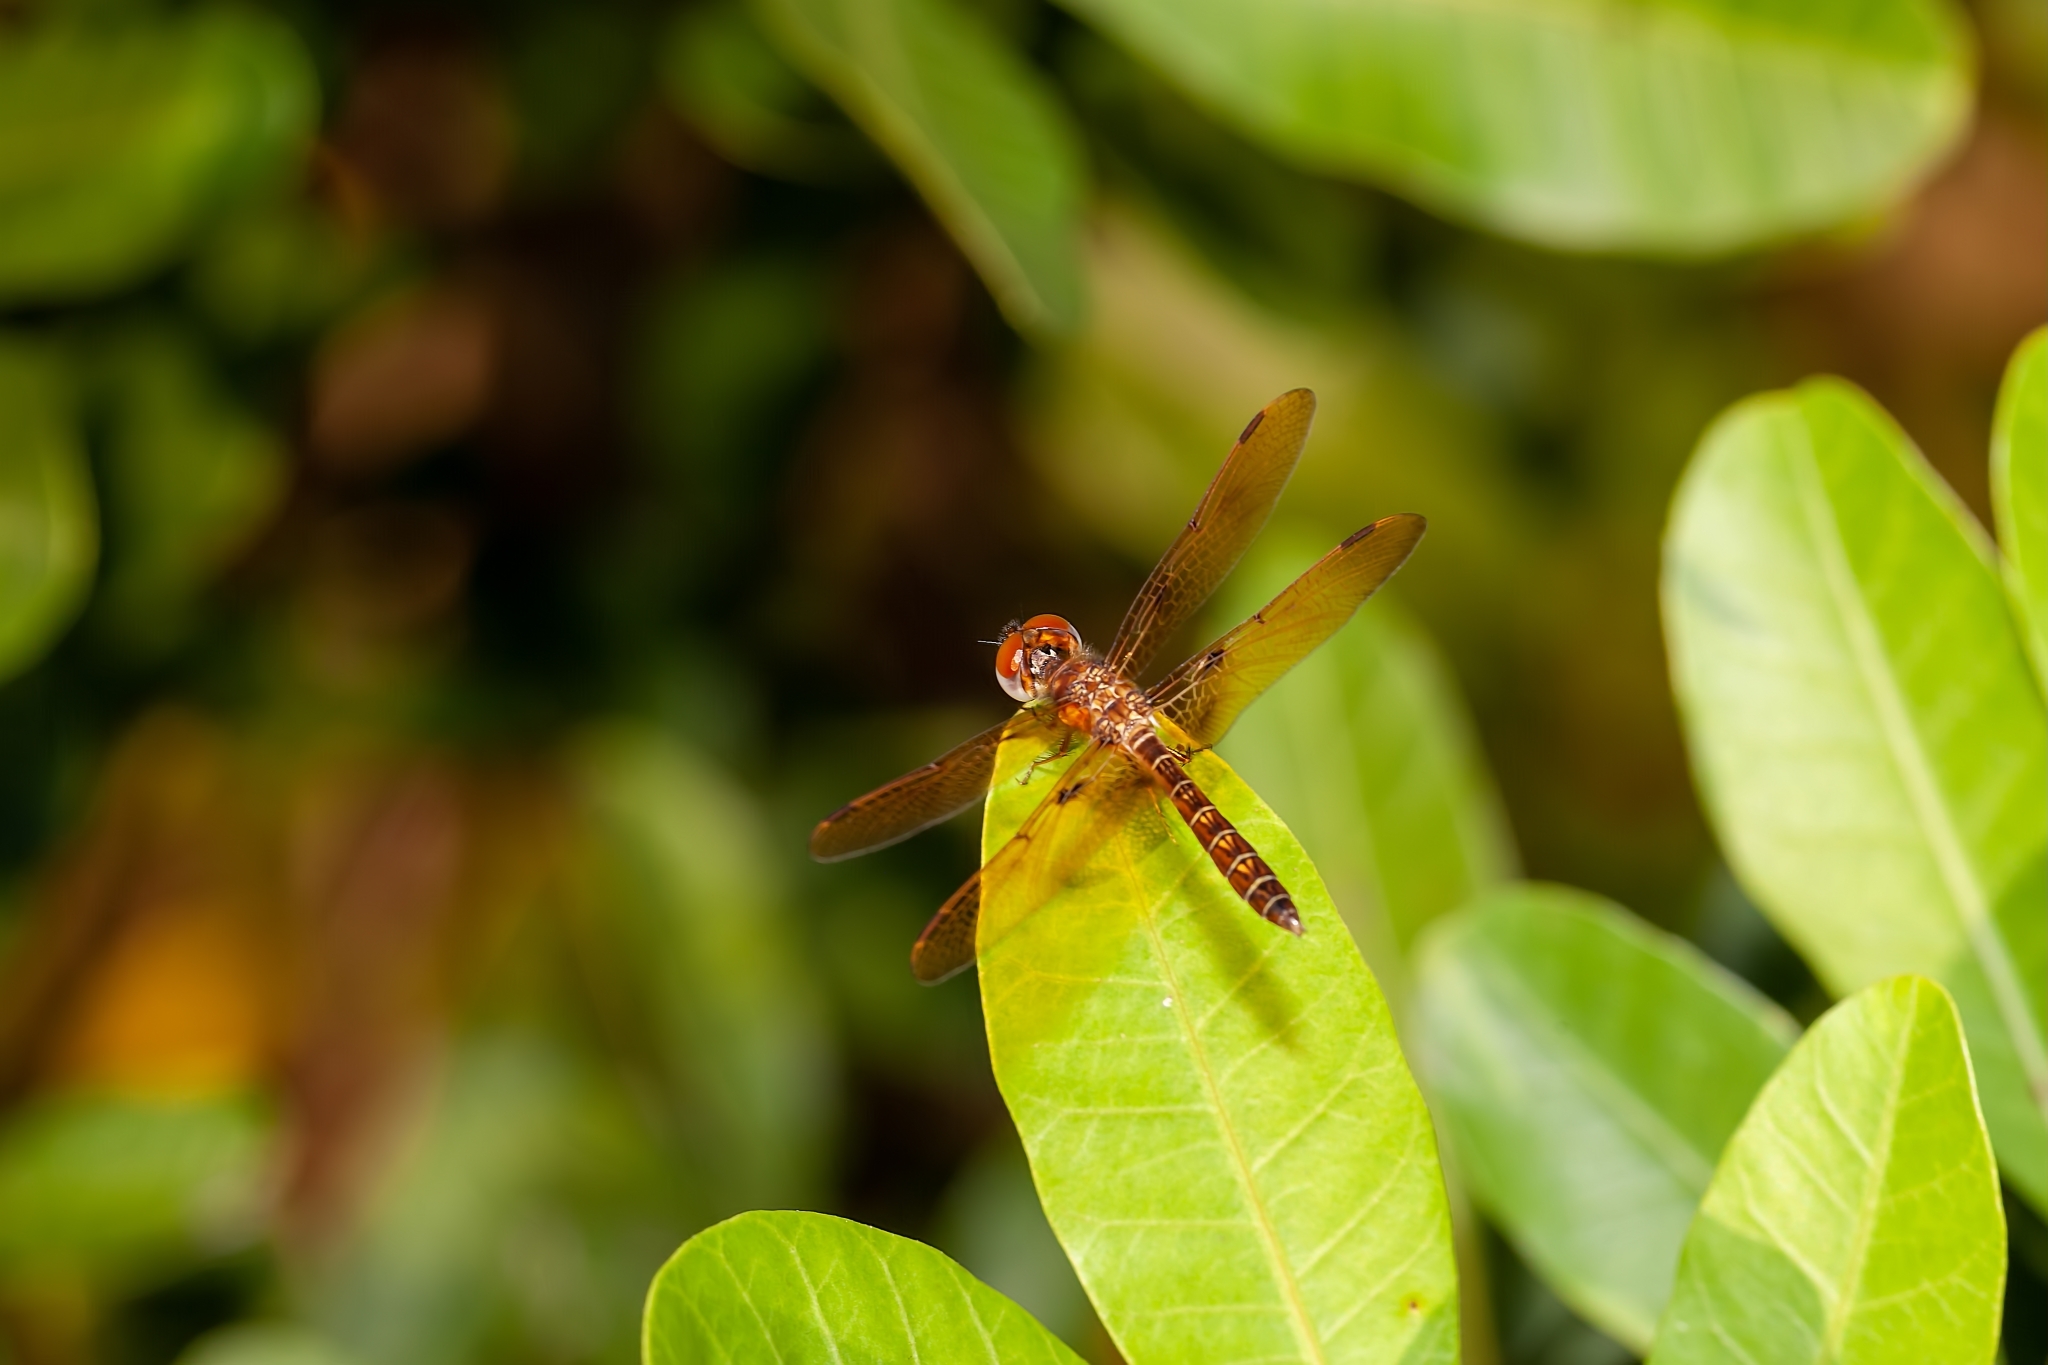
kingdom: Animalia
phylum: Arthropoda
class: Insecta
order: Odonata
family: Libellulidae
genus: Perithemis
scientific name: Perithemis tenera
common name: Eastern amberwing
